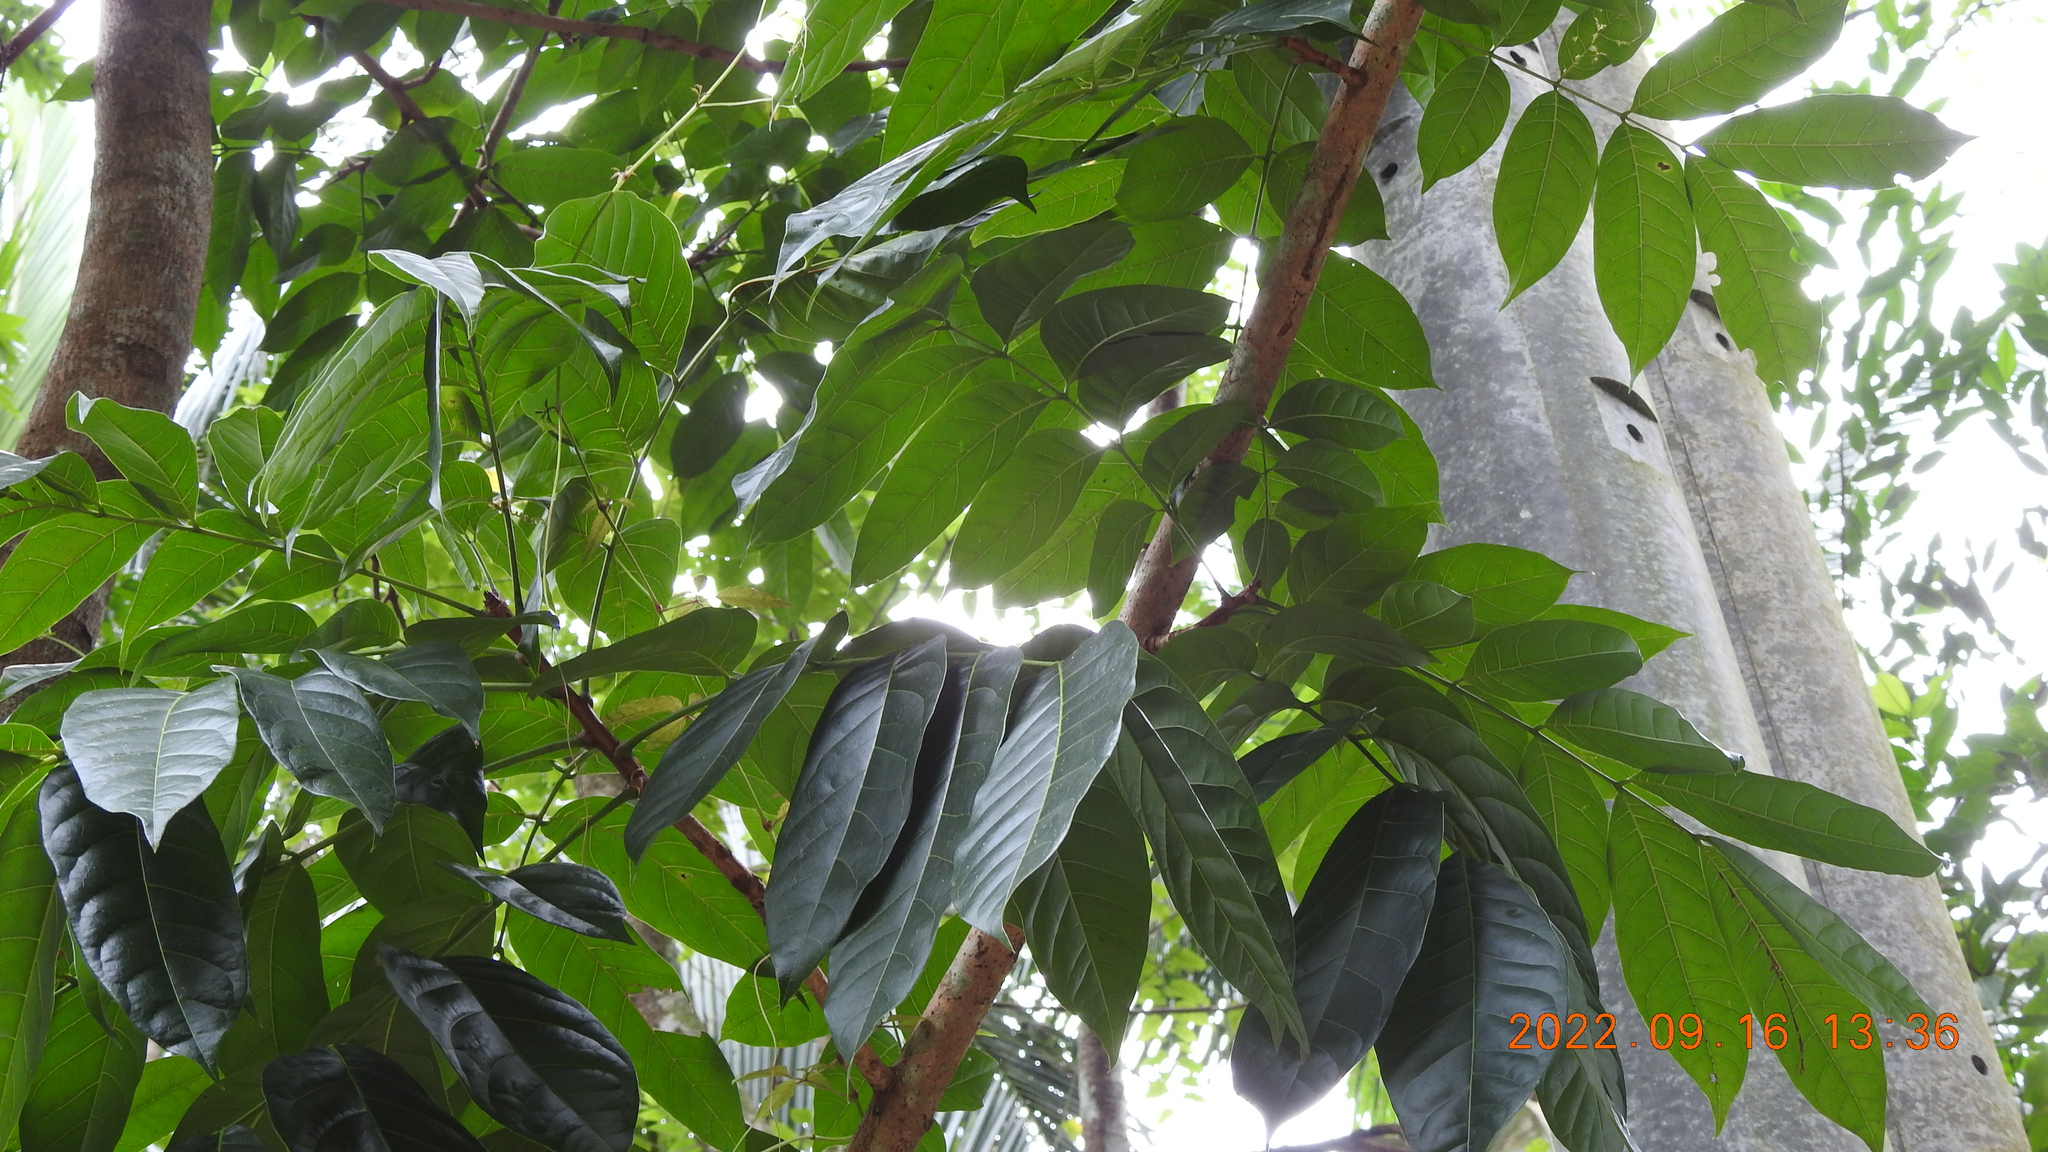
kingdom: Plantae
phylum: Tracheophyta
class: Magnoliopsida
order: Sapindales
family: Meliaceae
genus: Swietenia
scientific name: Swietenia macrophylla
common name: Honduras mahogany
